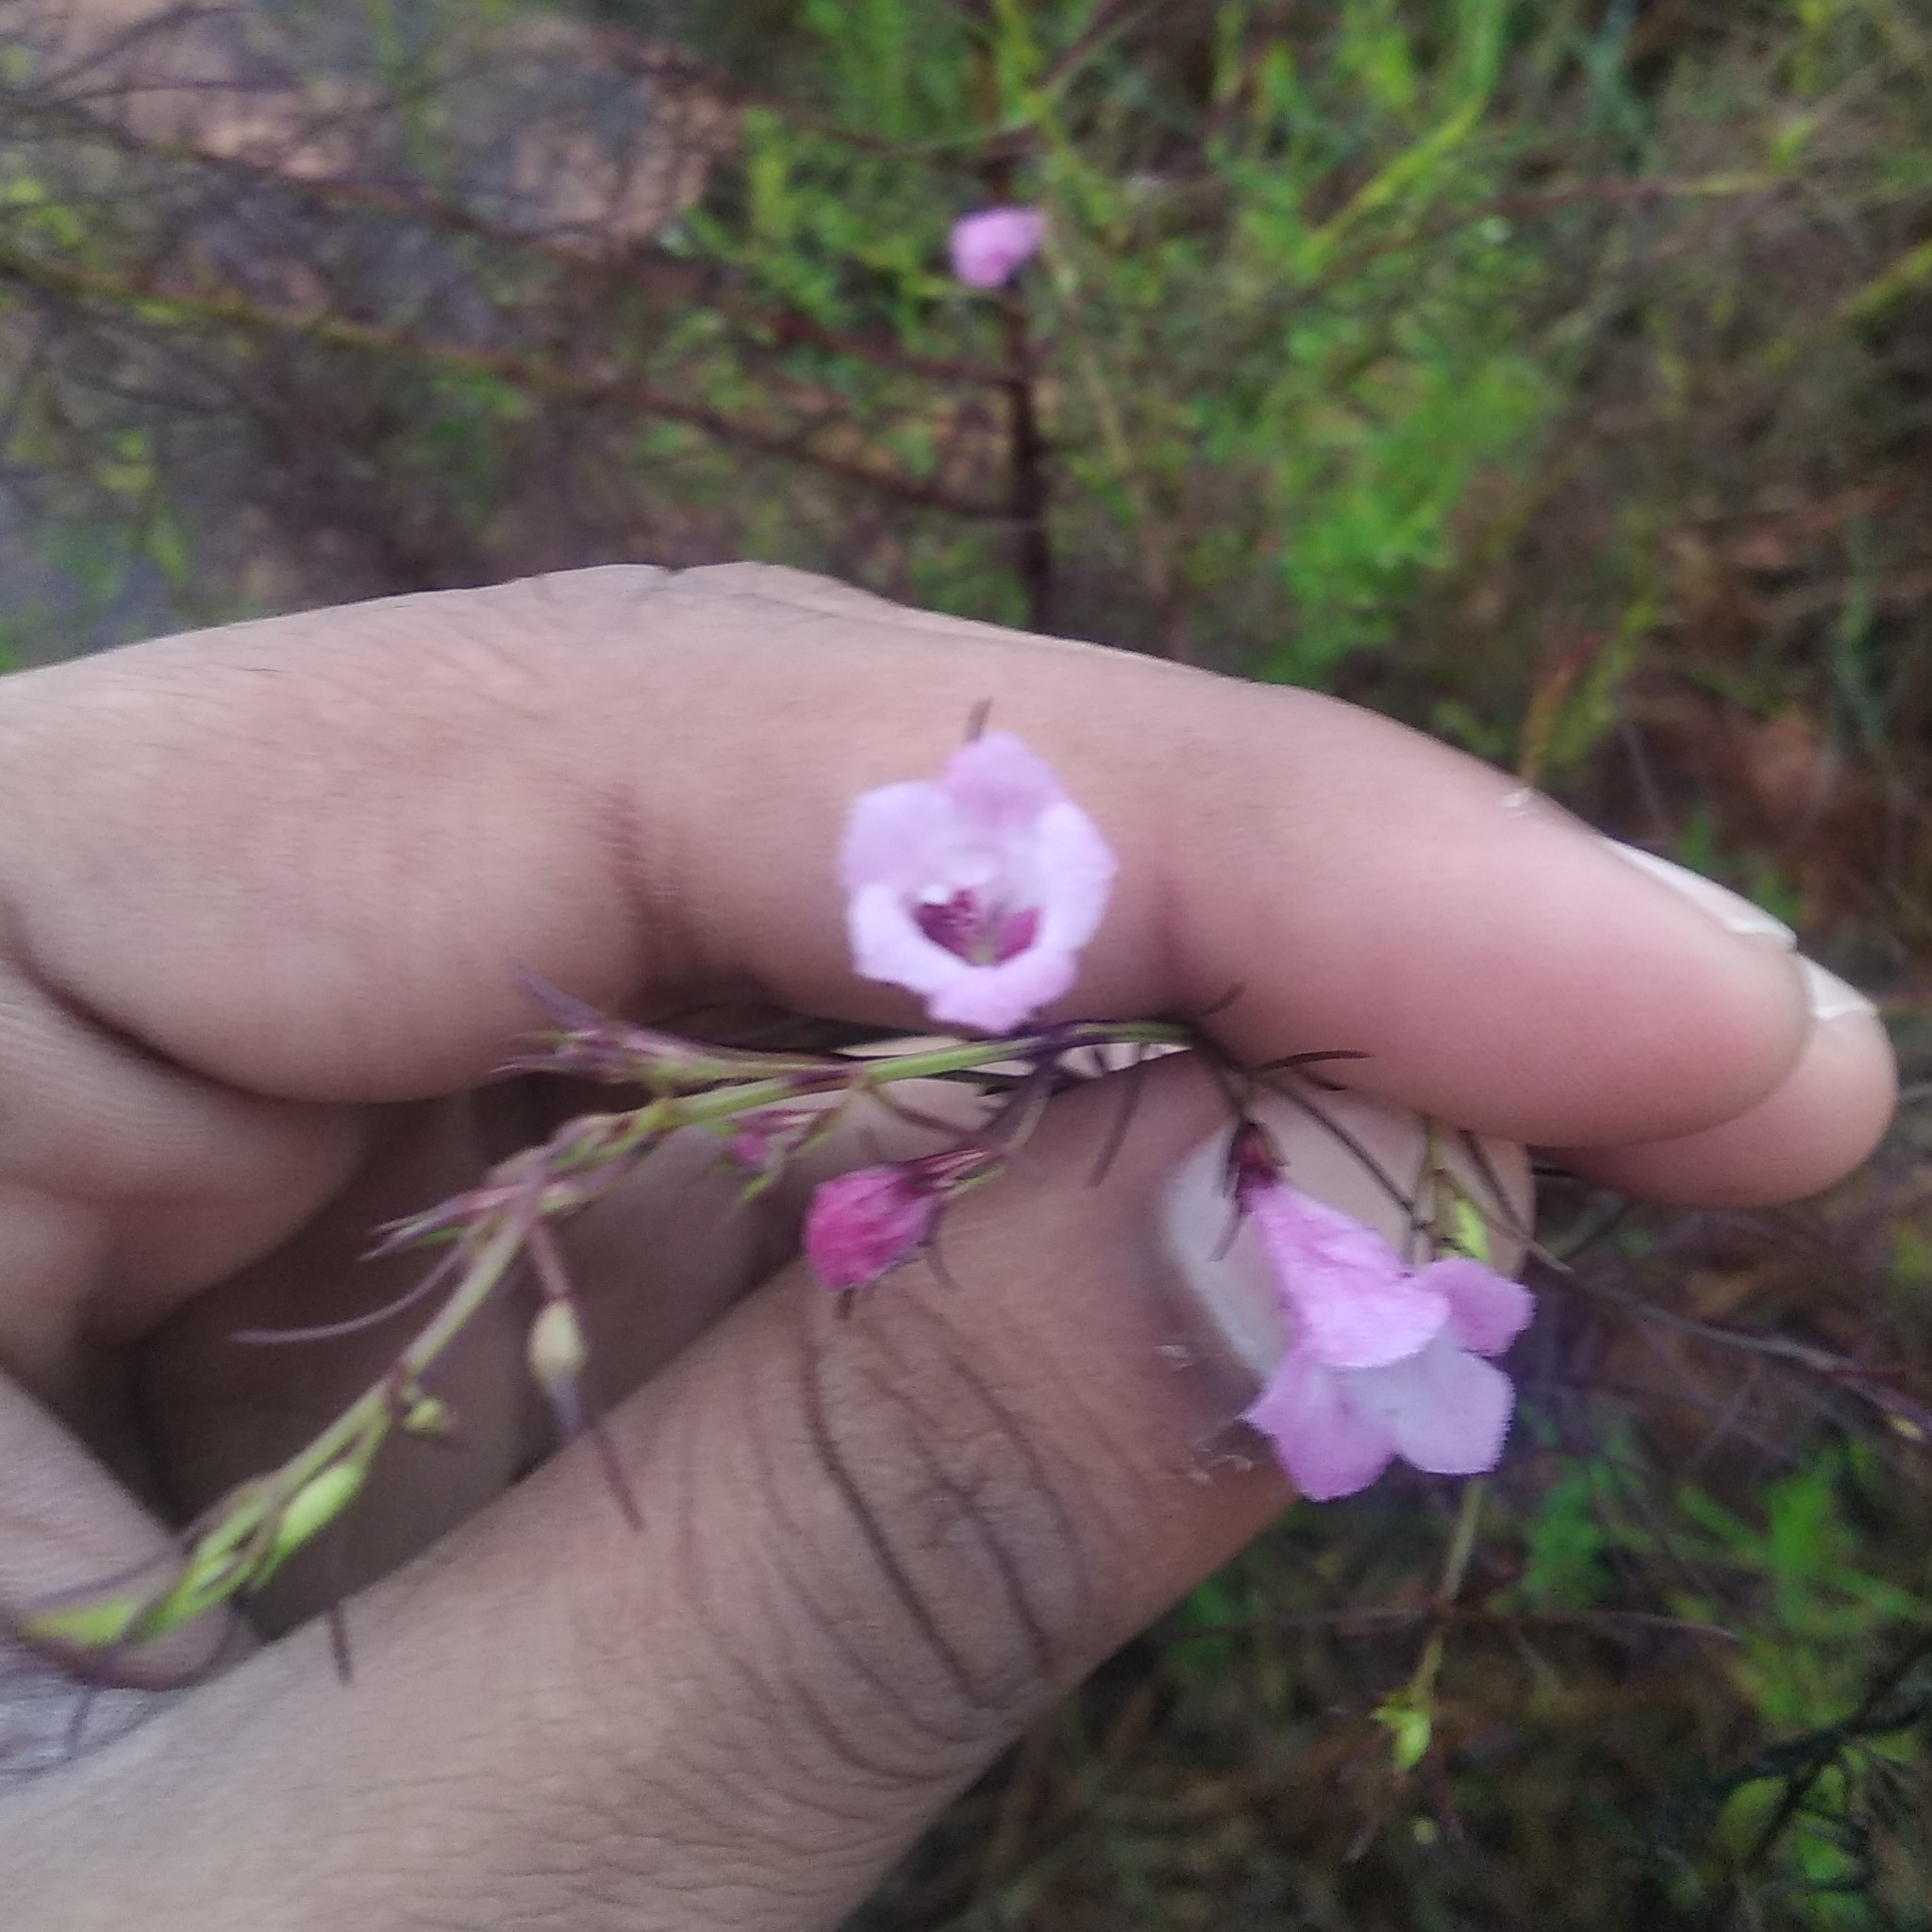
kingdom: Plantae
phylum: Tracheophyta
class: Magnoliopsida
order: Lamiales
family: Orobanchaceae
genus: Parasopubia
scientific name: Parasopubia delphiniifolia
